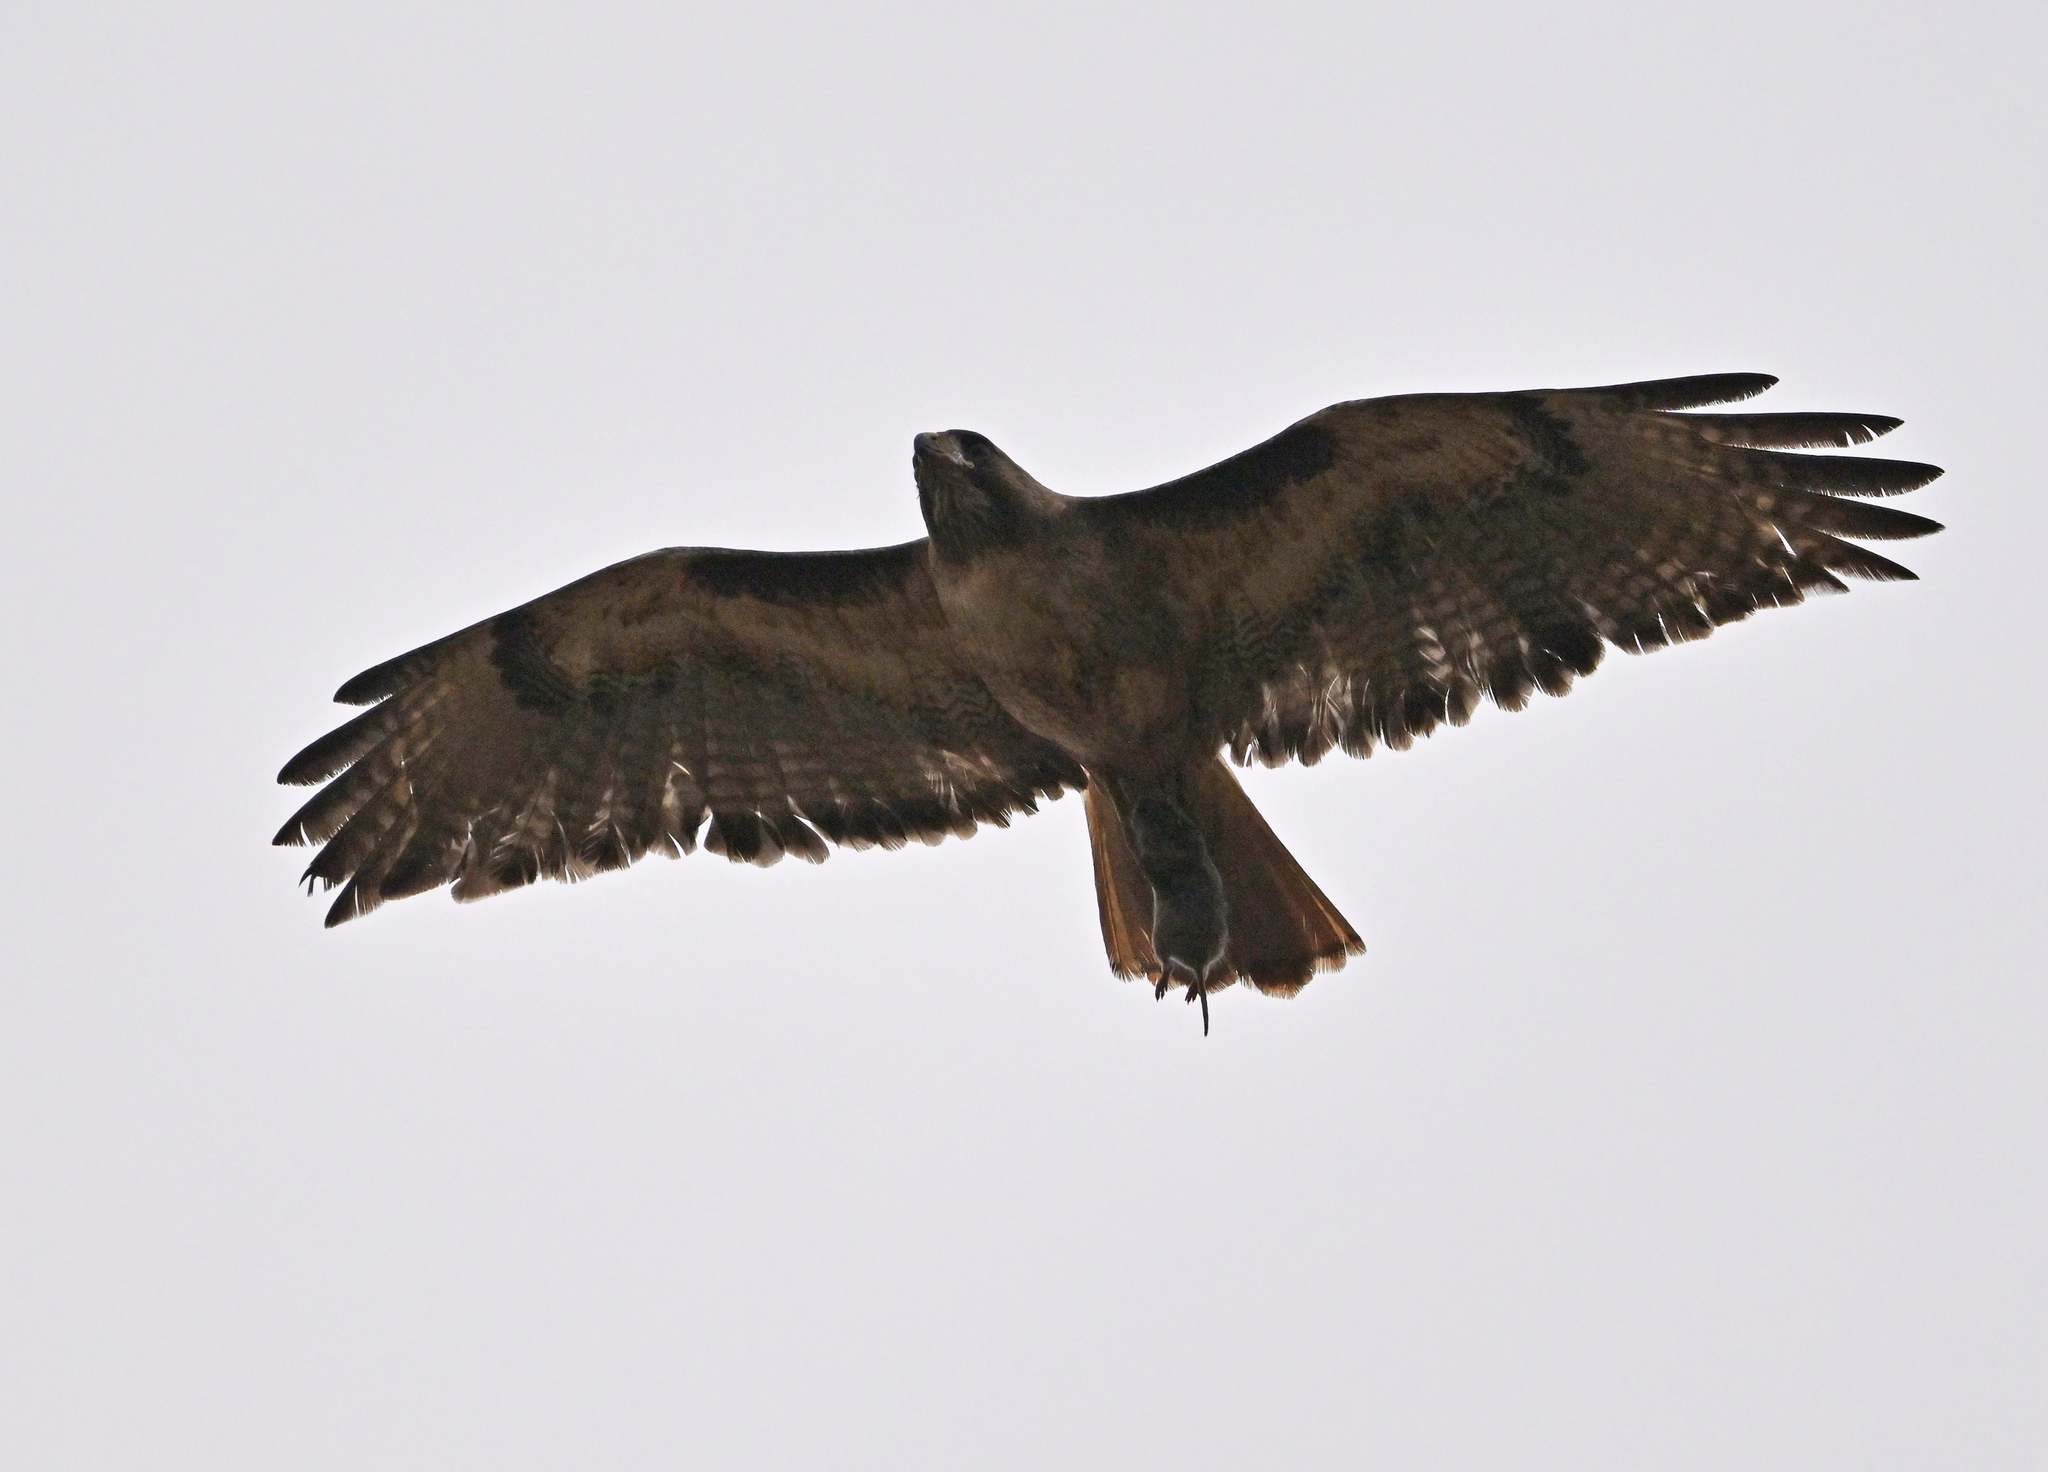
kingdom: Animalia
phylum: Chordata
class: Aves
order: Accipitriformes
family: Accipitridae
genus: Buteo
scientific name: Buteo jamaicensis
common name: Red-tailed hawk
